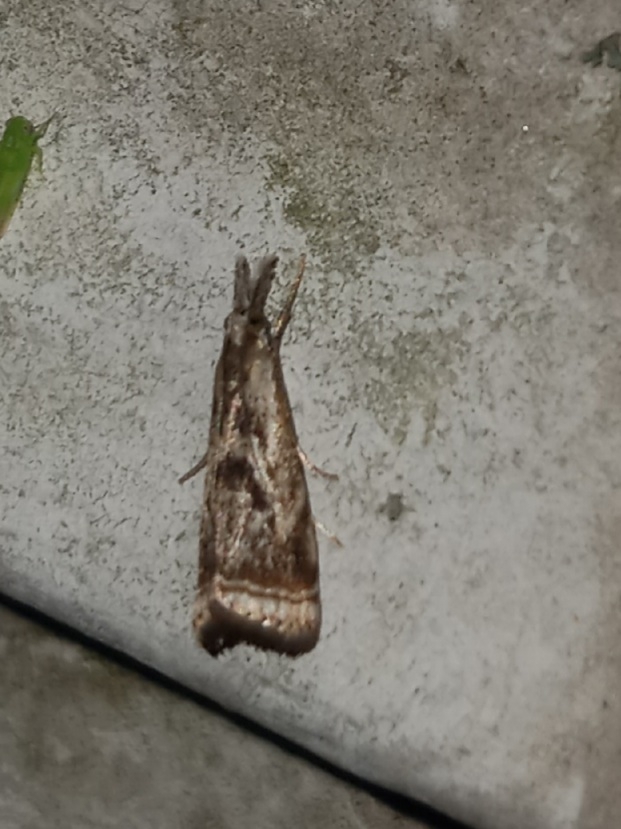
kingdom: Animalia
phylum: Arthropoda
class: Insecta
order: Lepidoptera
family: Crambidae
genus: Microcrambus
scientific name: Microcrambus elegans
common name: Elegant grass-veneer
